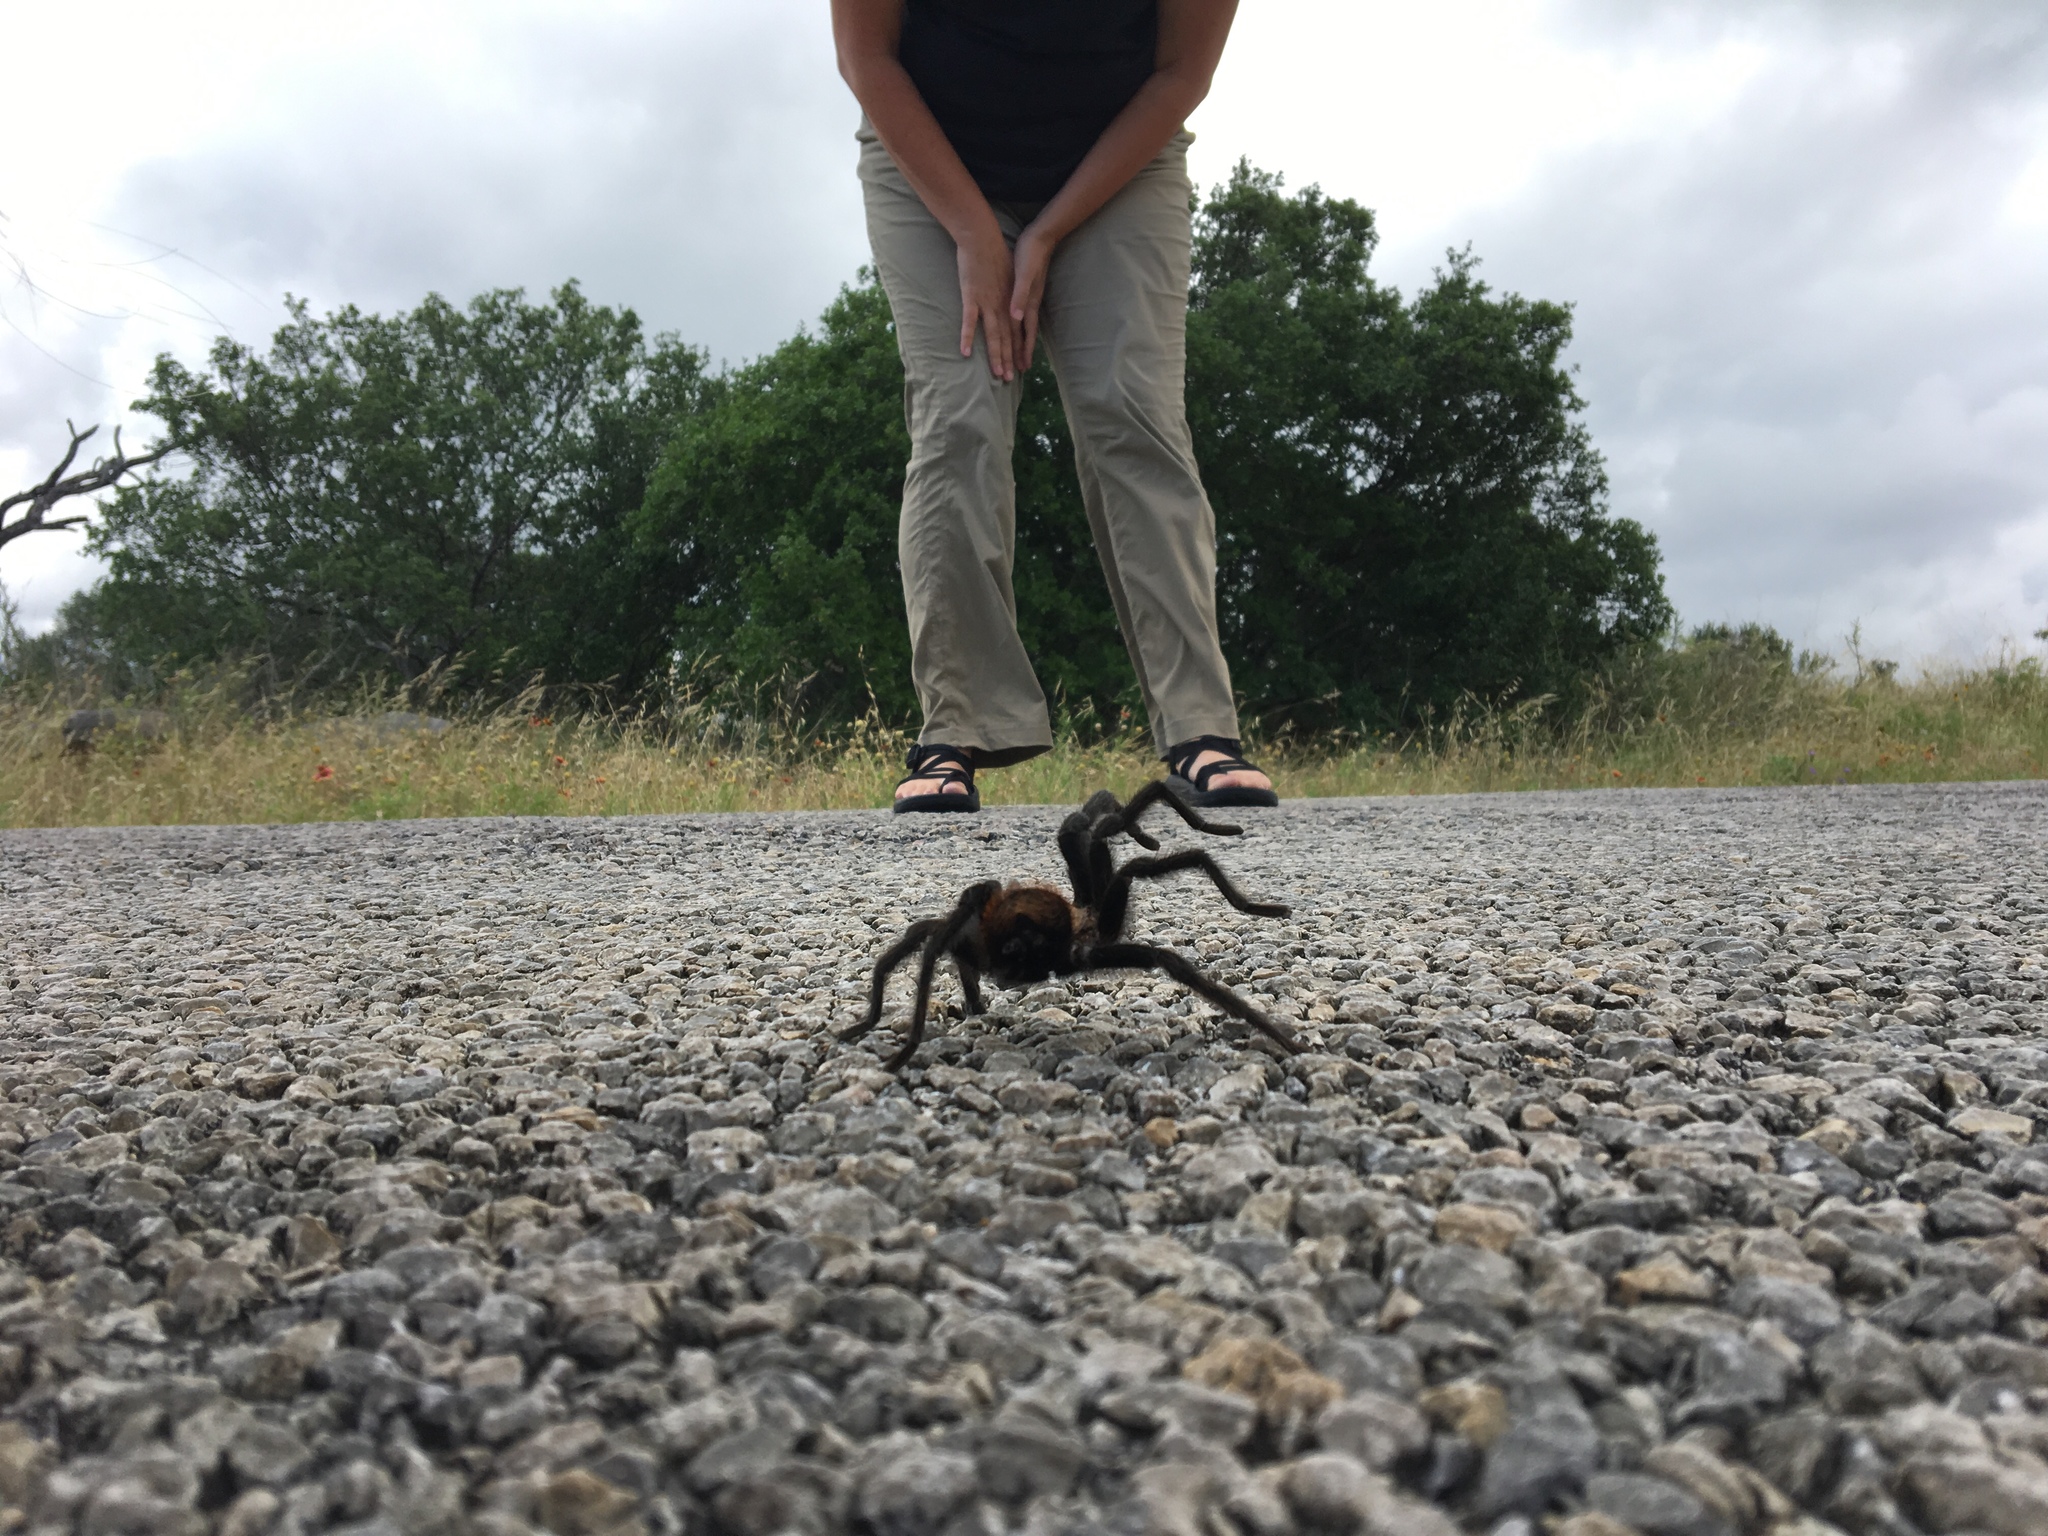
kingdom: Animalia
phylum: Arthropoda
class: Arachnida
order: Araneae
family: Theraphosidae
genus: Aphonopelma
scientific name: Aphonopelma hentzi
